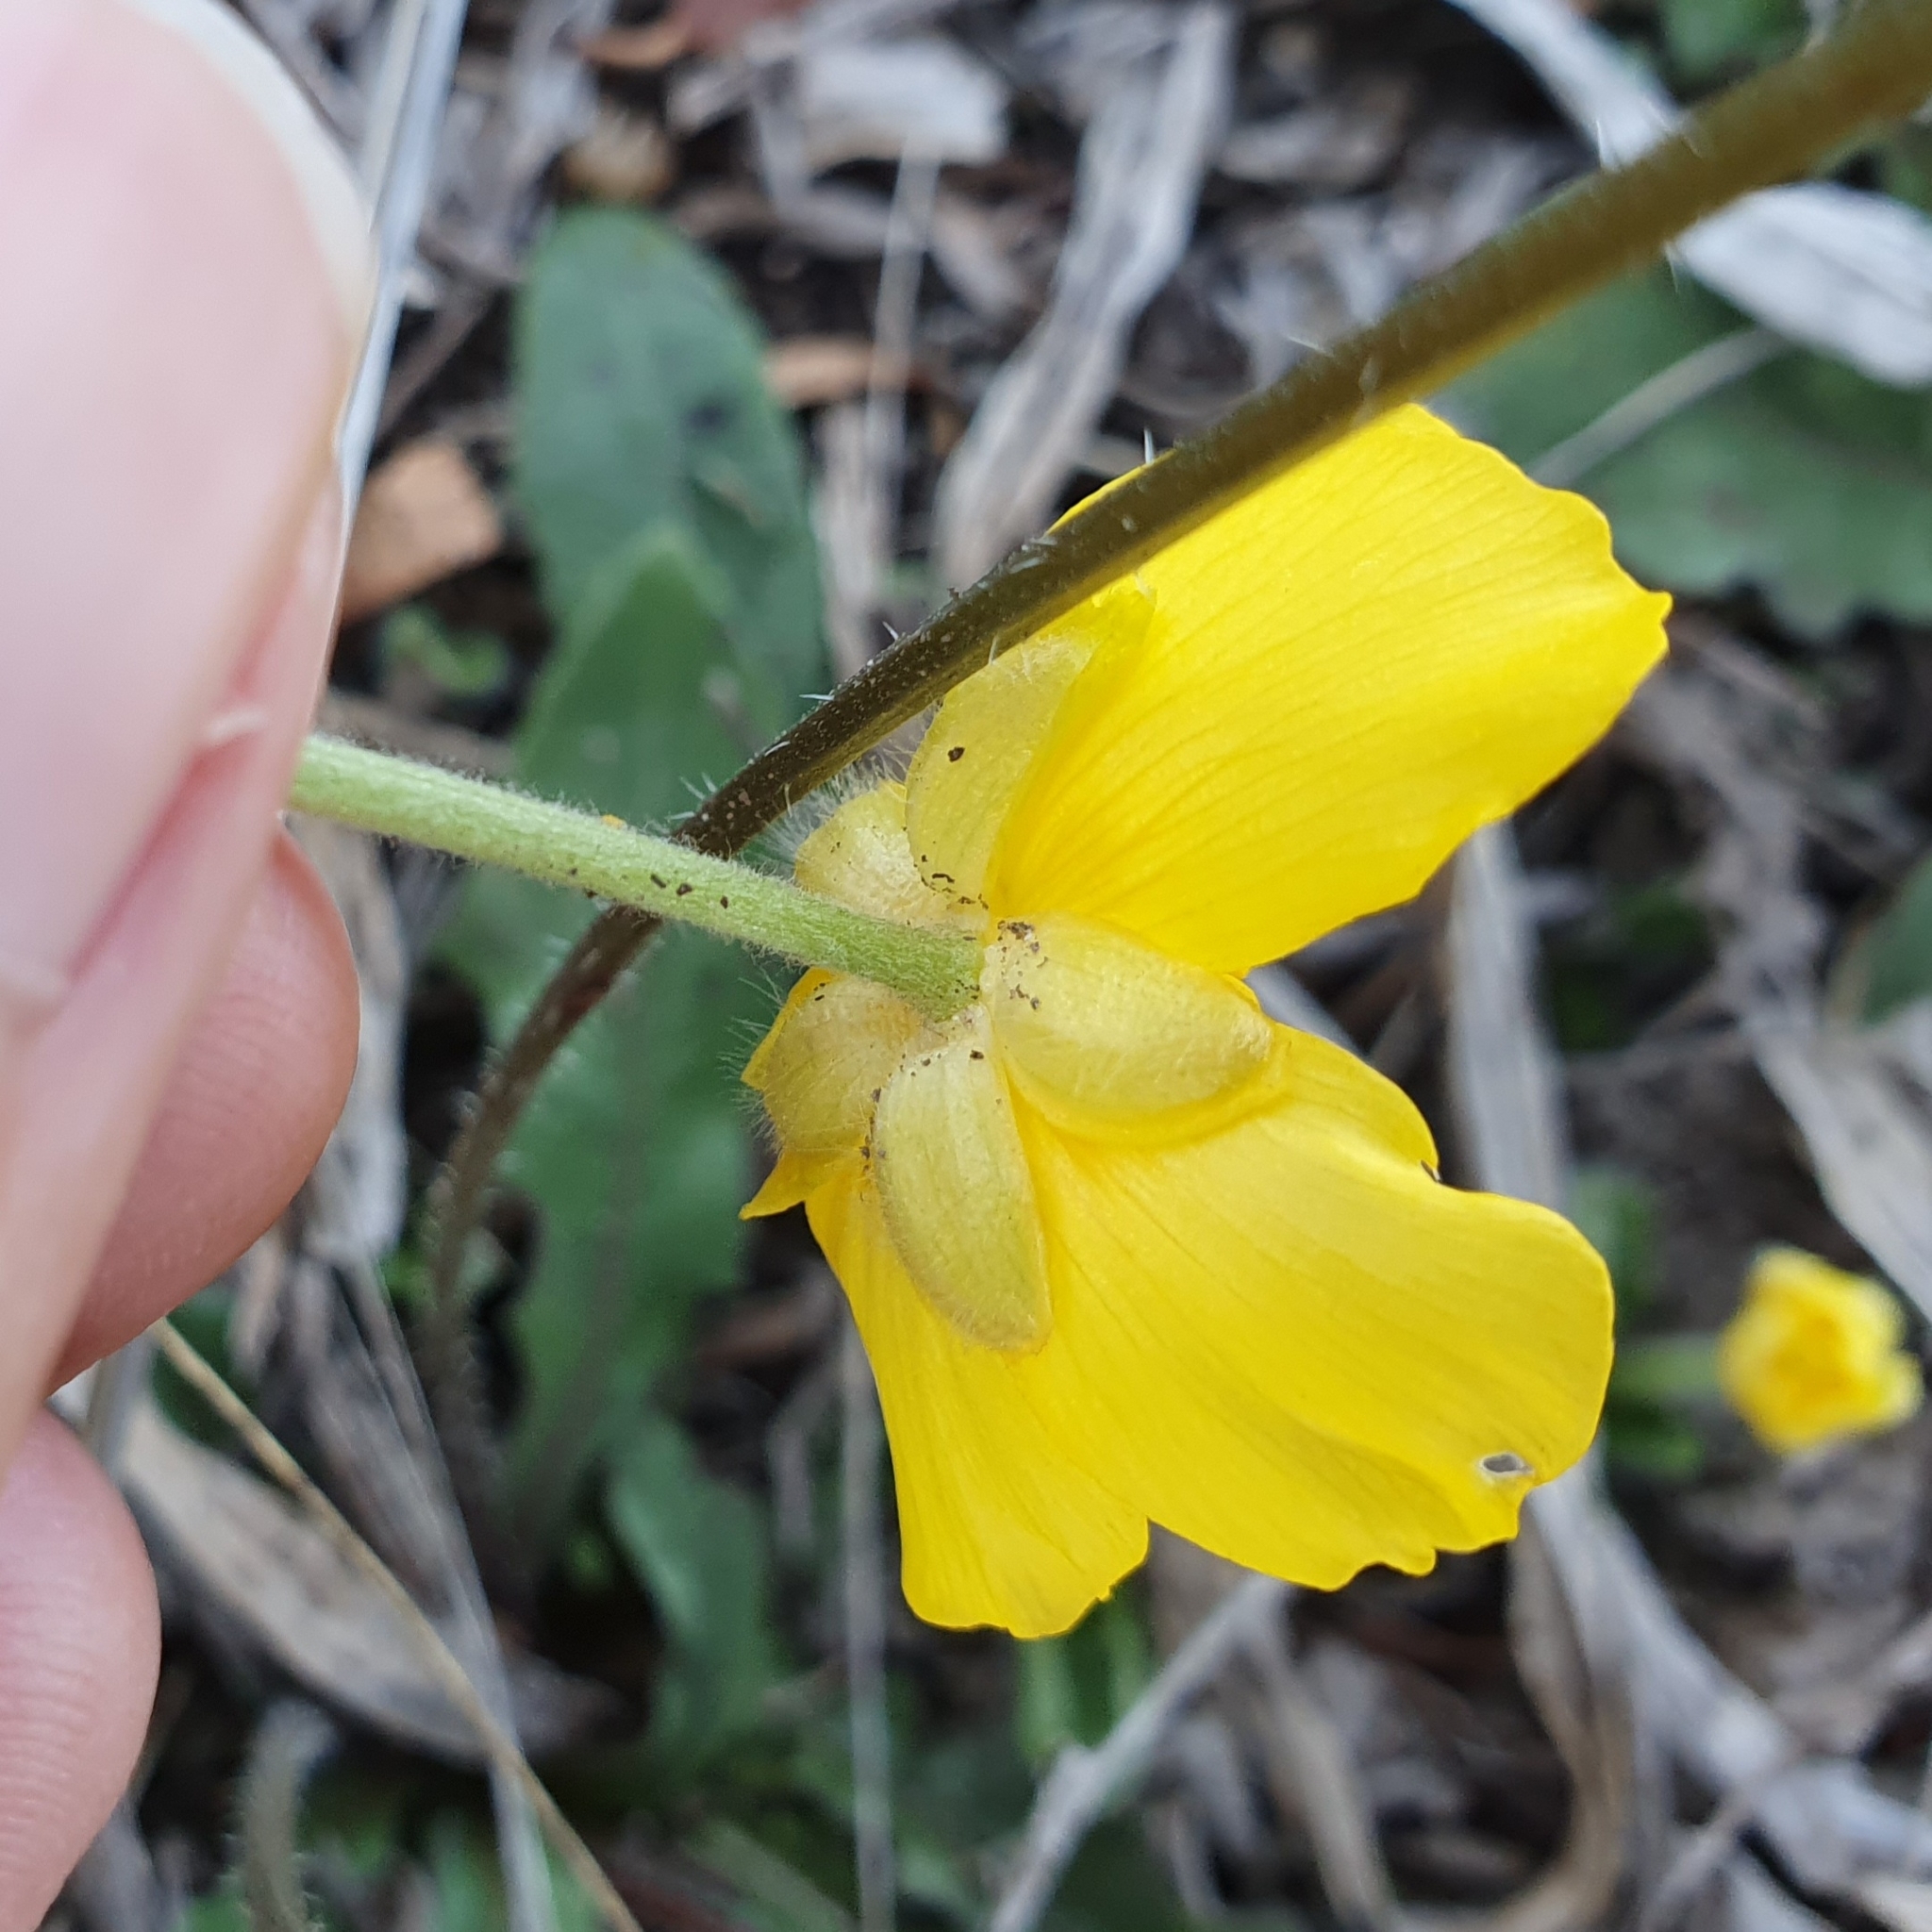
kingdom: Plantae
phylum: Tracheophyta
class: Magnoliopsida
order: Ranunculales
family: Ranunculaceae
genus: Ranunculus
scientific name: Ranunculus bullatus
